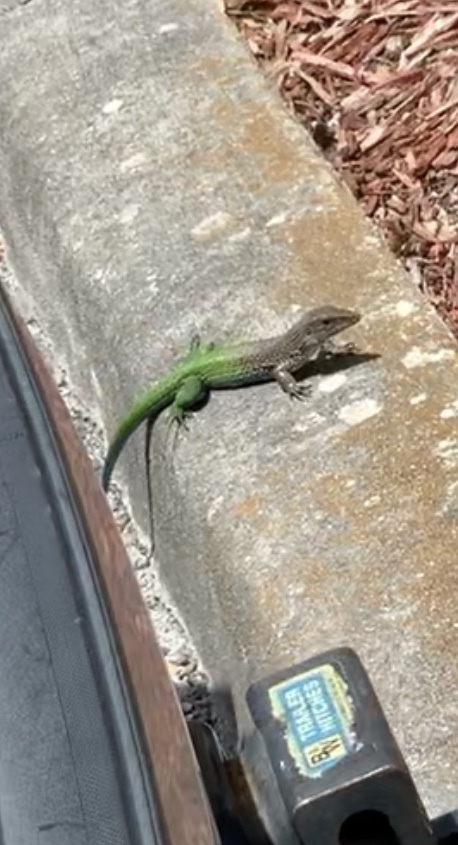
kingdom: Animalia
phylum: Chordata
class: Squamata
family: Teiidae
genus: Ameiva
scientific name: Ameiva ameiva
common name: Giant ameiva
